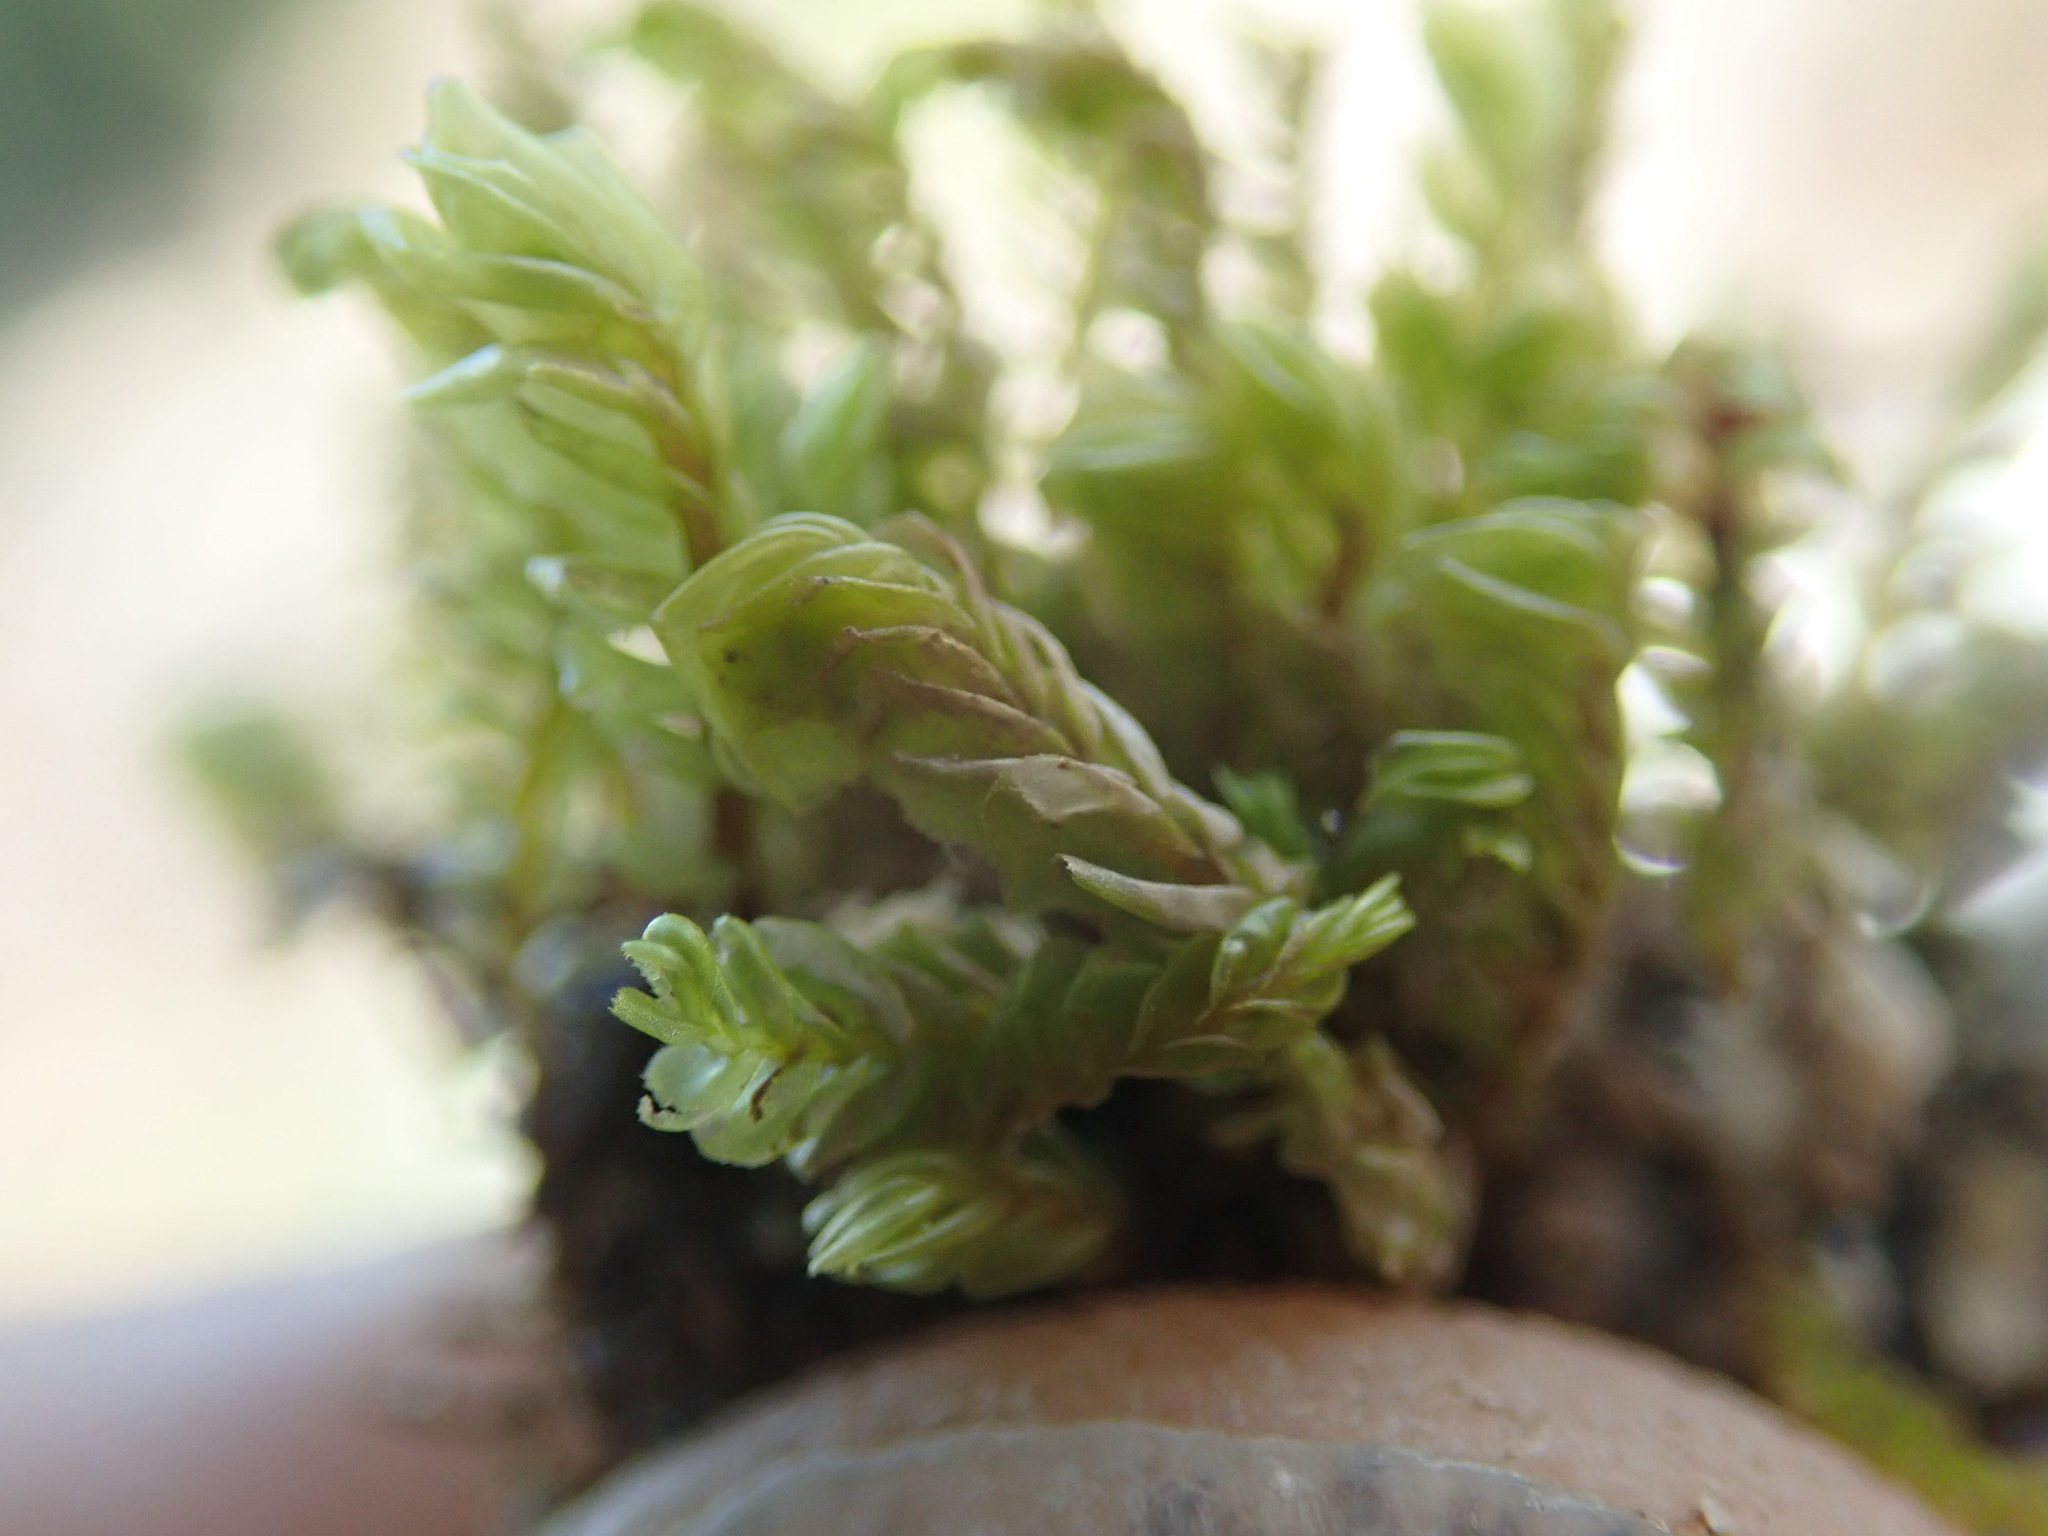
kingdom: Plantae
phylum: Marchantiophyta
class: Jungermanniopsida
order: Jungermanniales
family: Plagiochilaceae
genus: Plagiochila
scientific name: Plagiochila porelloides
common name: Lesser featherwort
